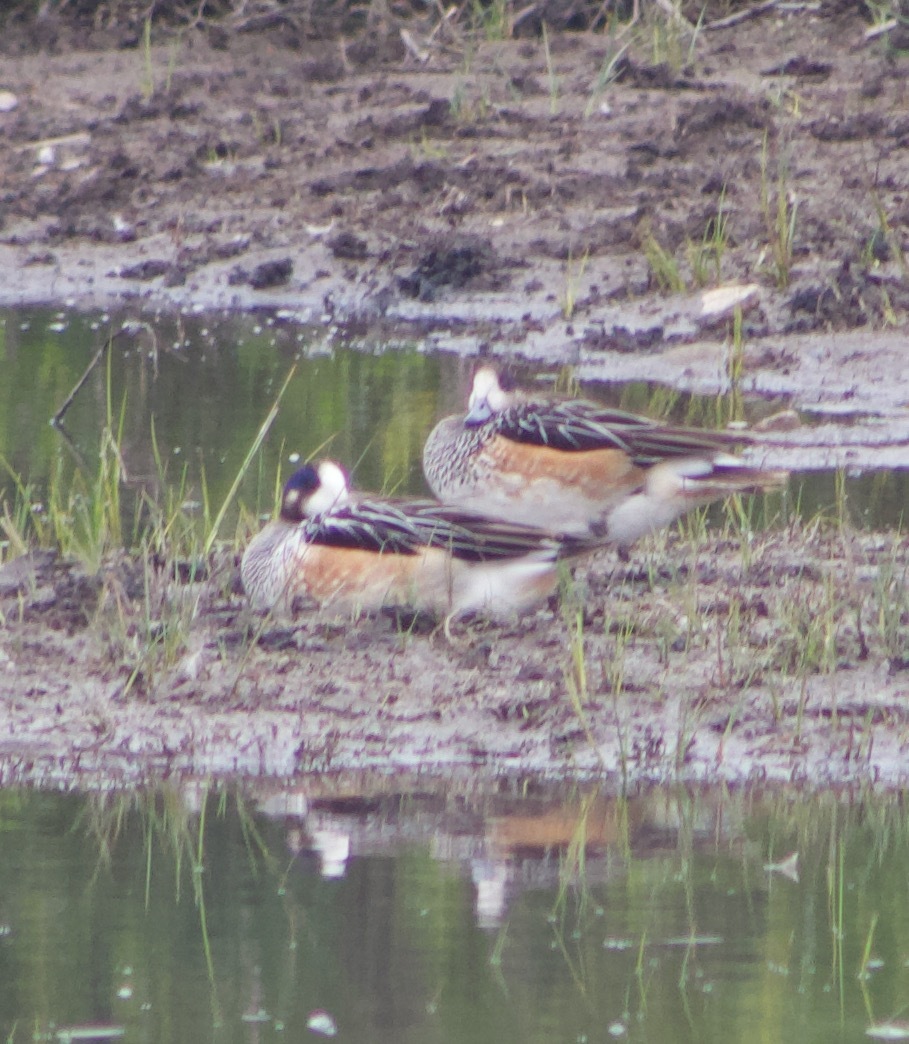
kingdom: Animalia
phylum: Chordata
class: Aves
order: Anseriformes
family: Anatidae
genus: Mareca
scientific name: Mareca sibilatrix
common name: Chiloe wigeon
